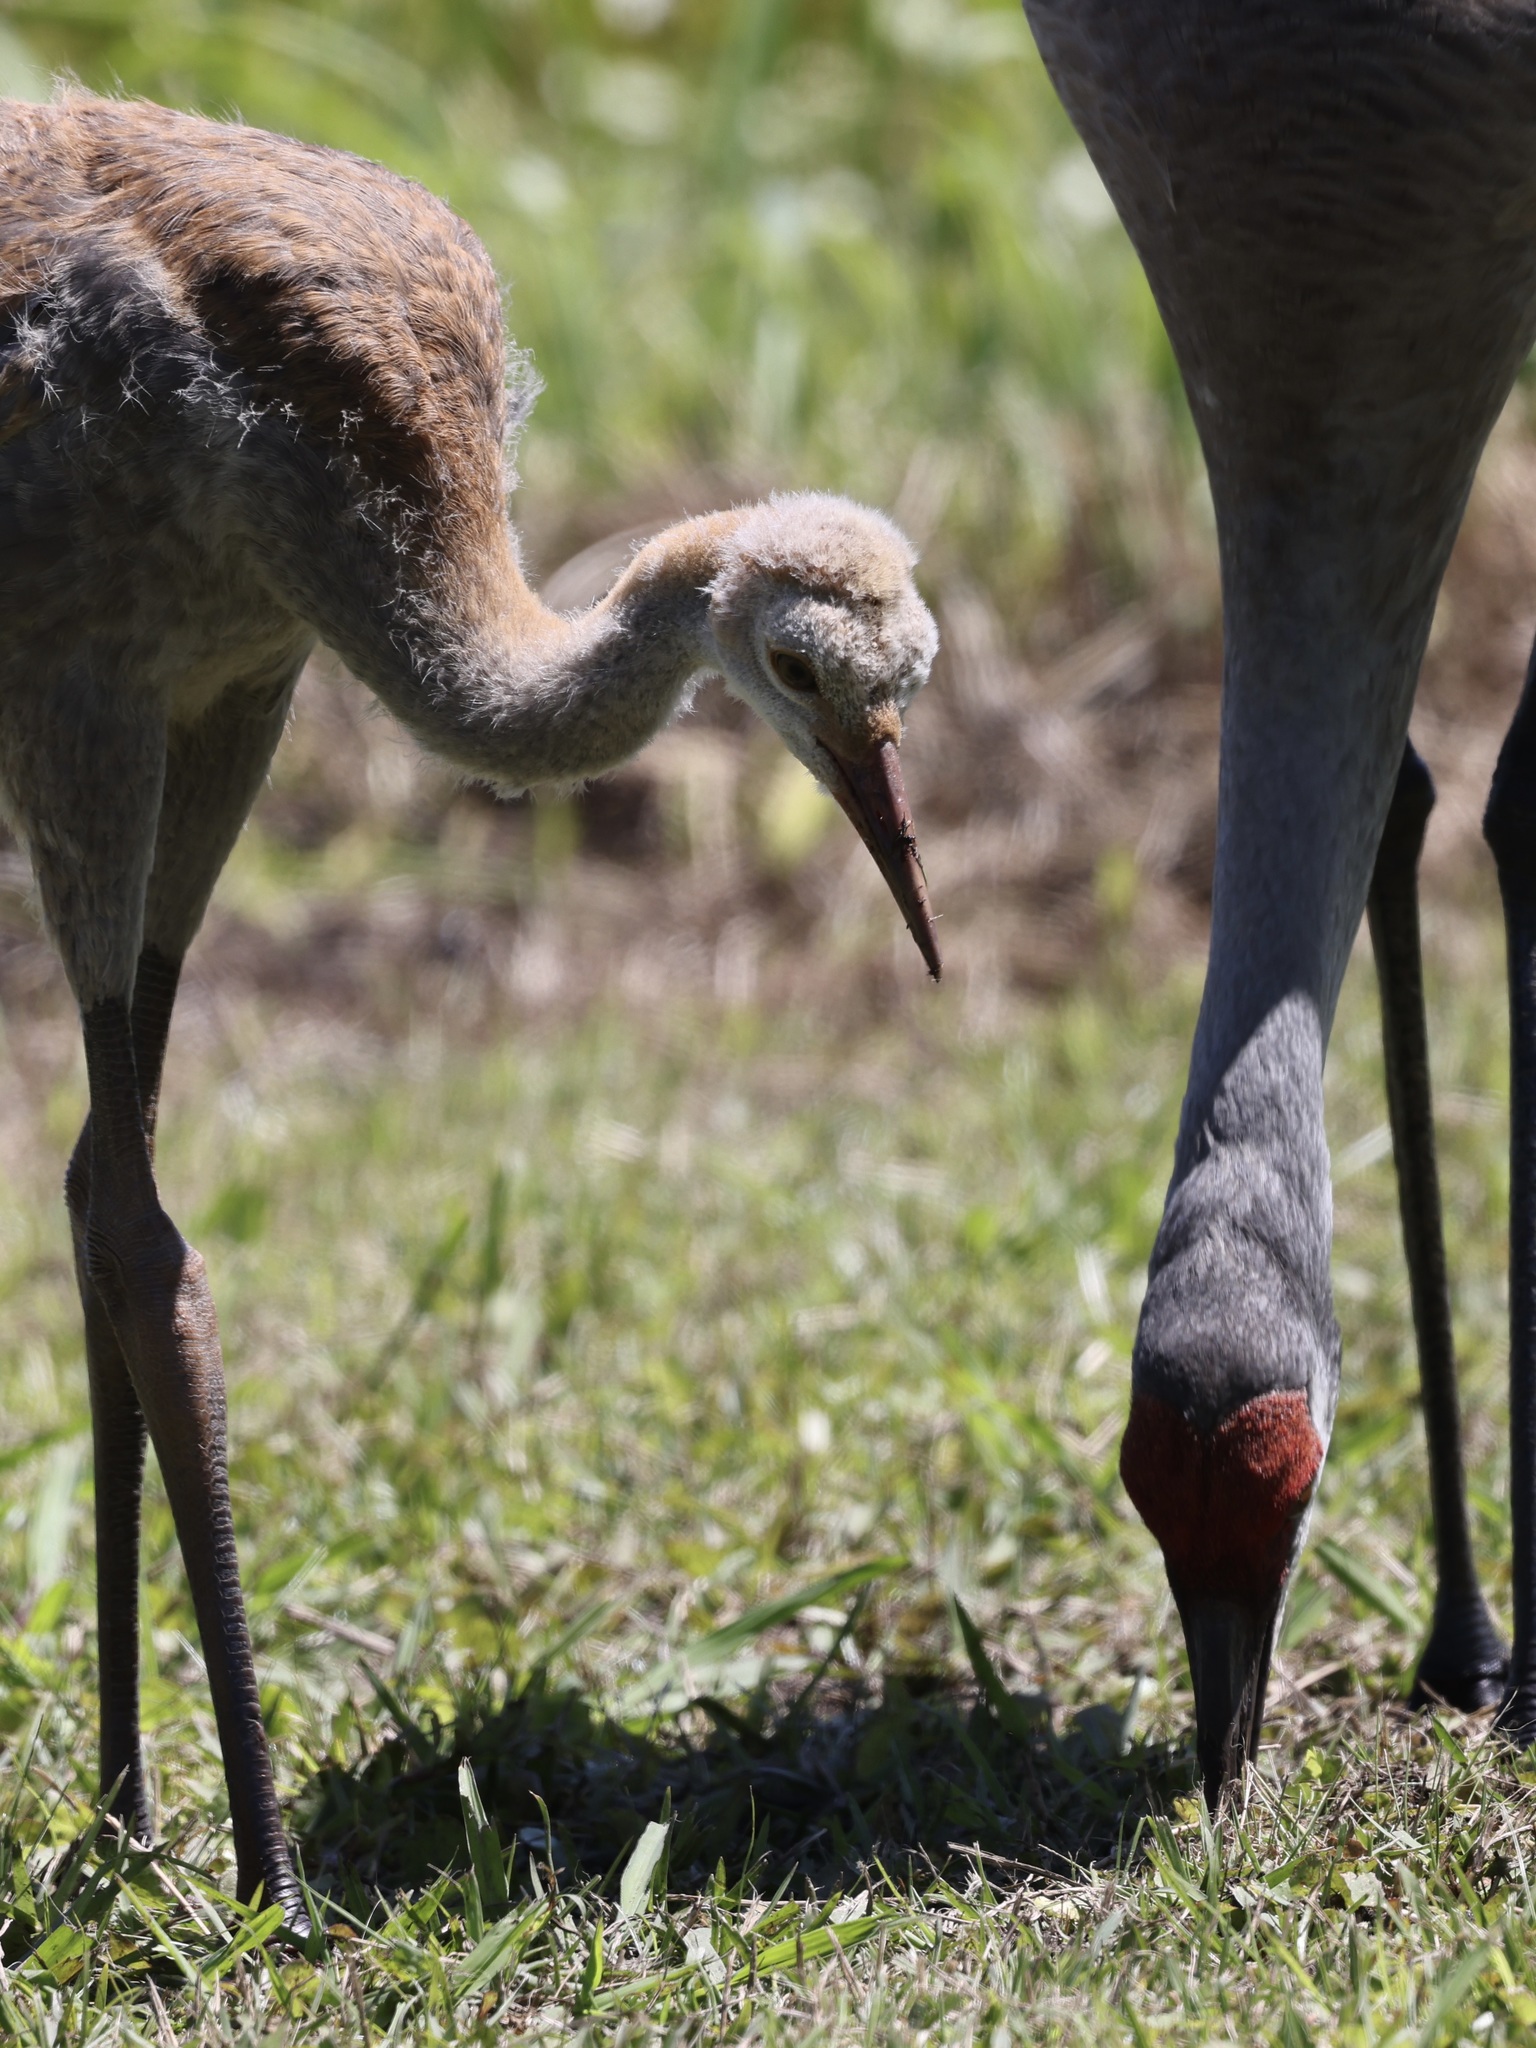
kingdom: Animalia
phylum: Chordata
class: Aves
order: Gruiformes
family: Gruidae
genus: Grus
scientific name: Grus canadensis
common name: Sandhill crane
